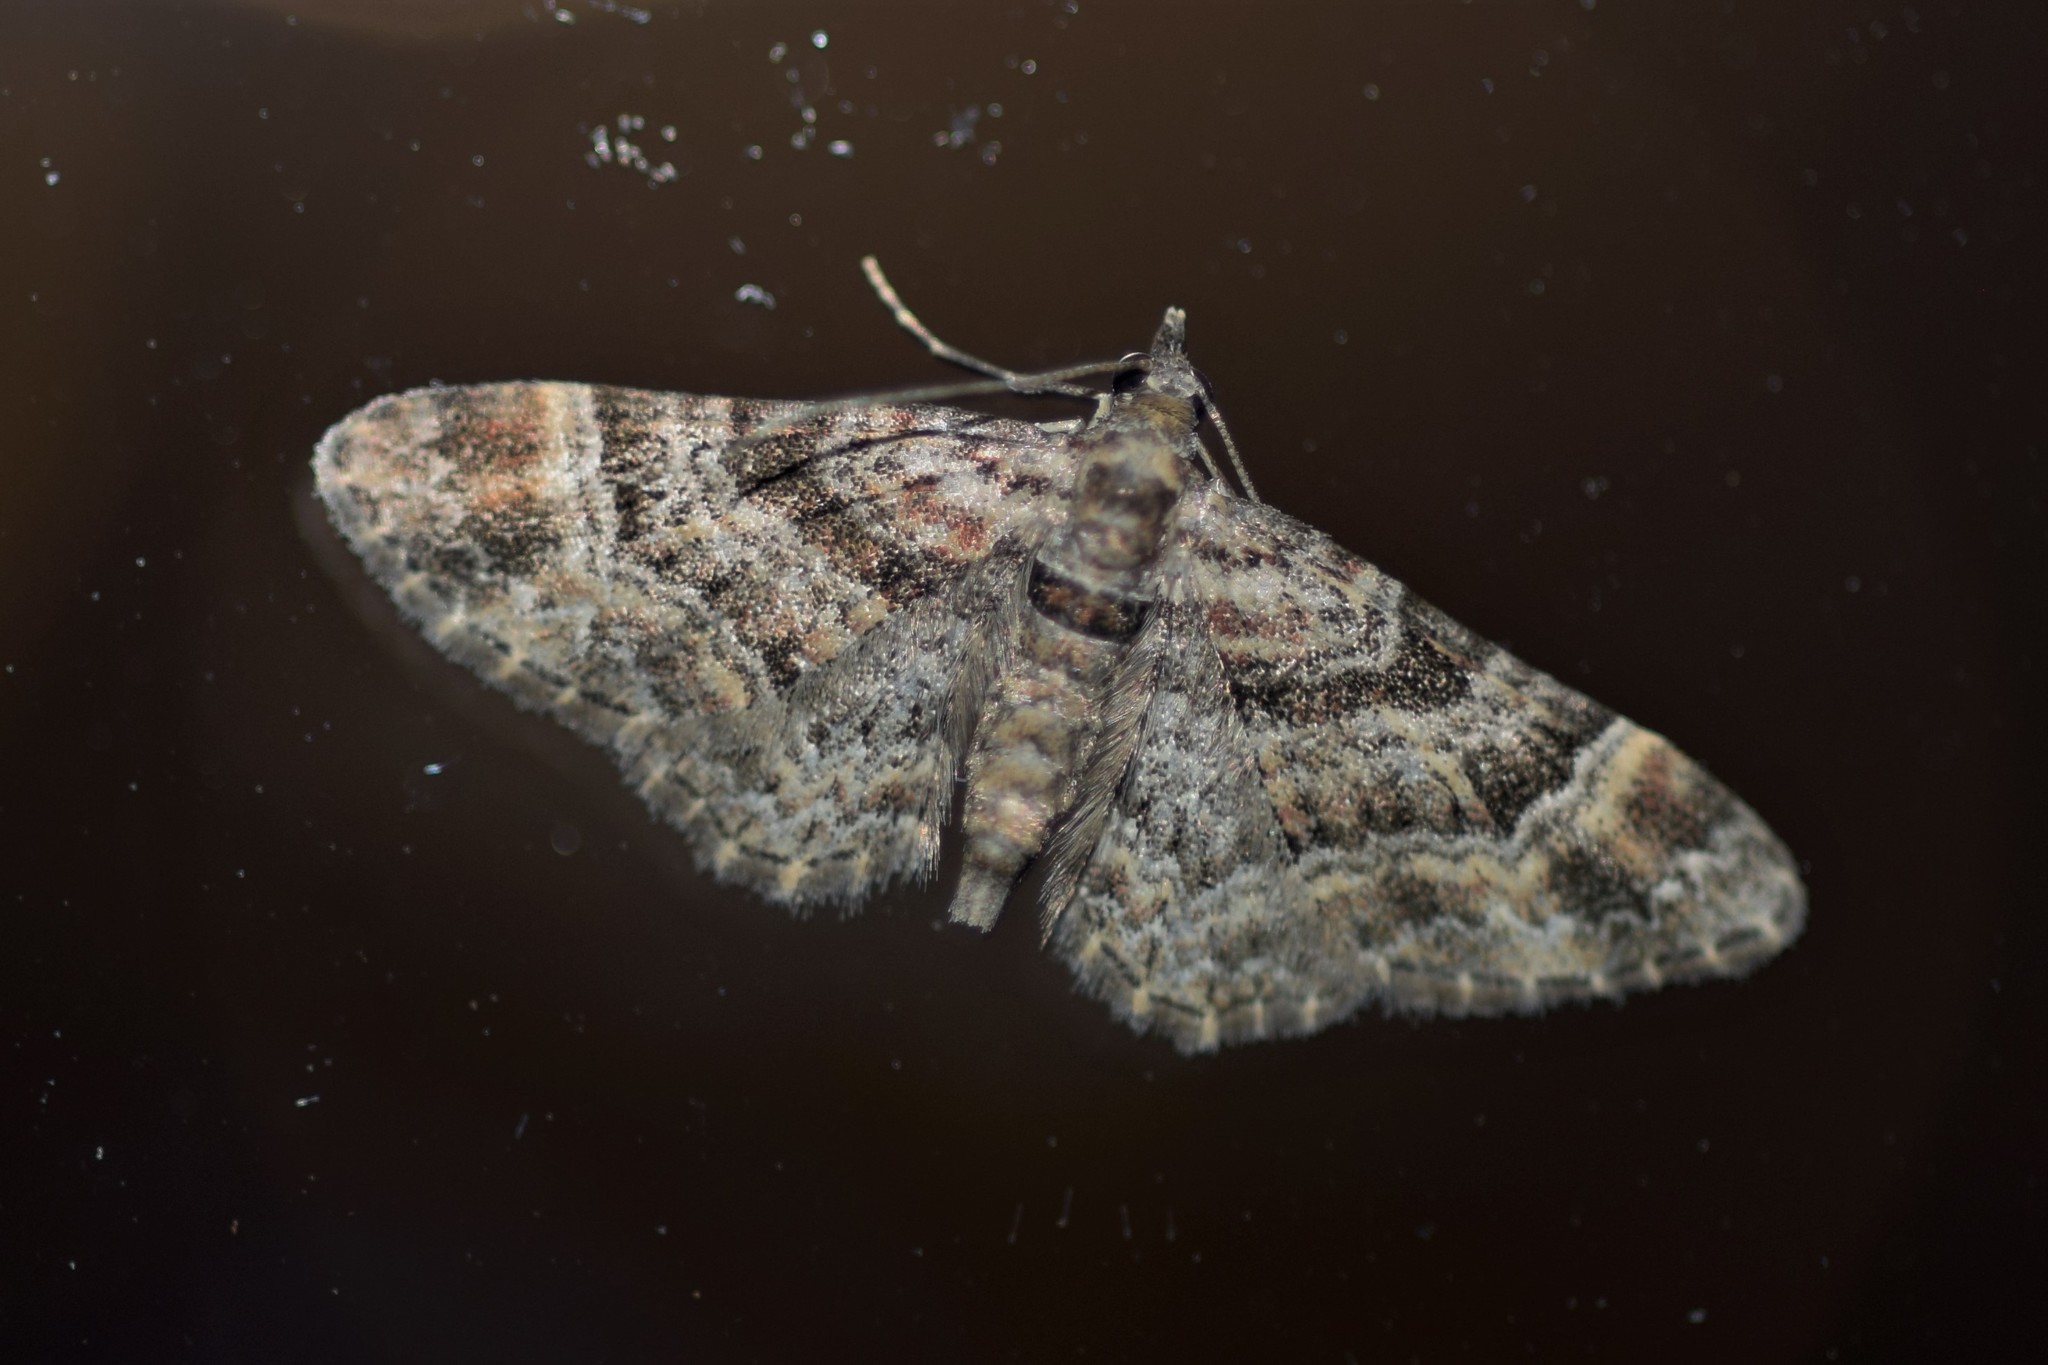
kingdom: Animalia
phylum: Arthropoda
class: Insecta
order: Lepidoptera
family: Geometridae
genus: Gymnoscelis
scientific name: Gymnoscelis rufifasciata
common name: Double-striped pug
